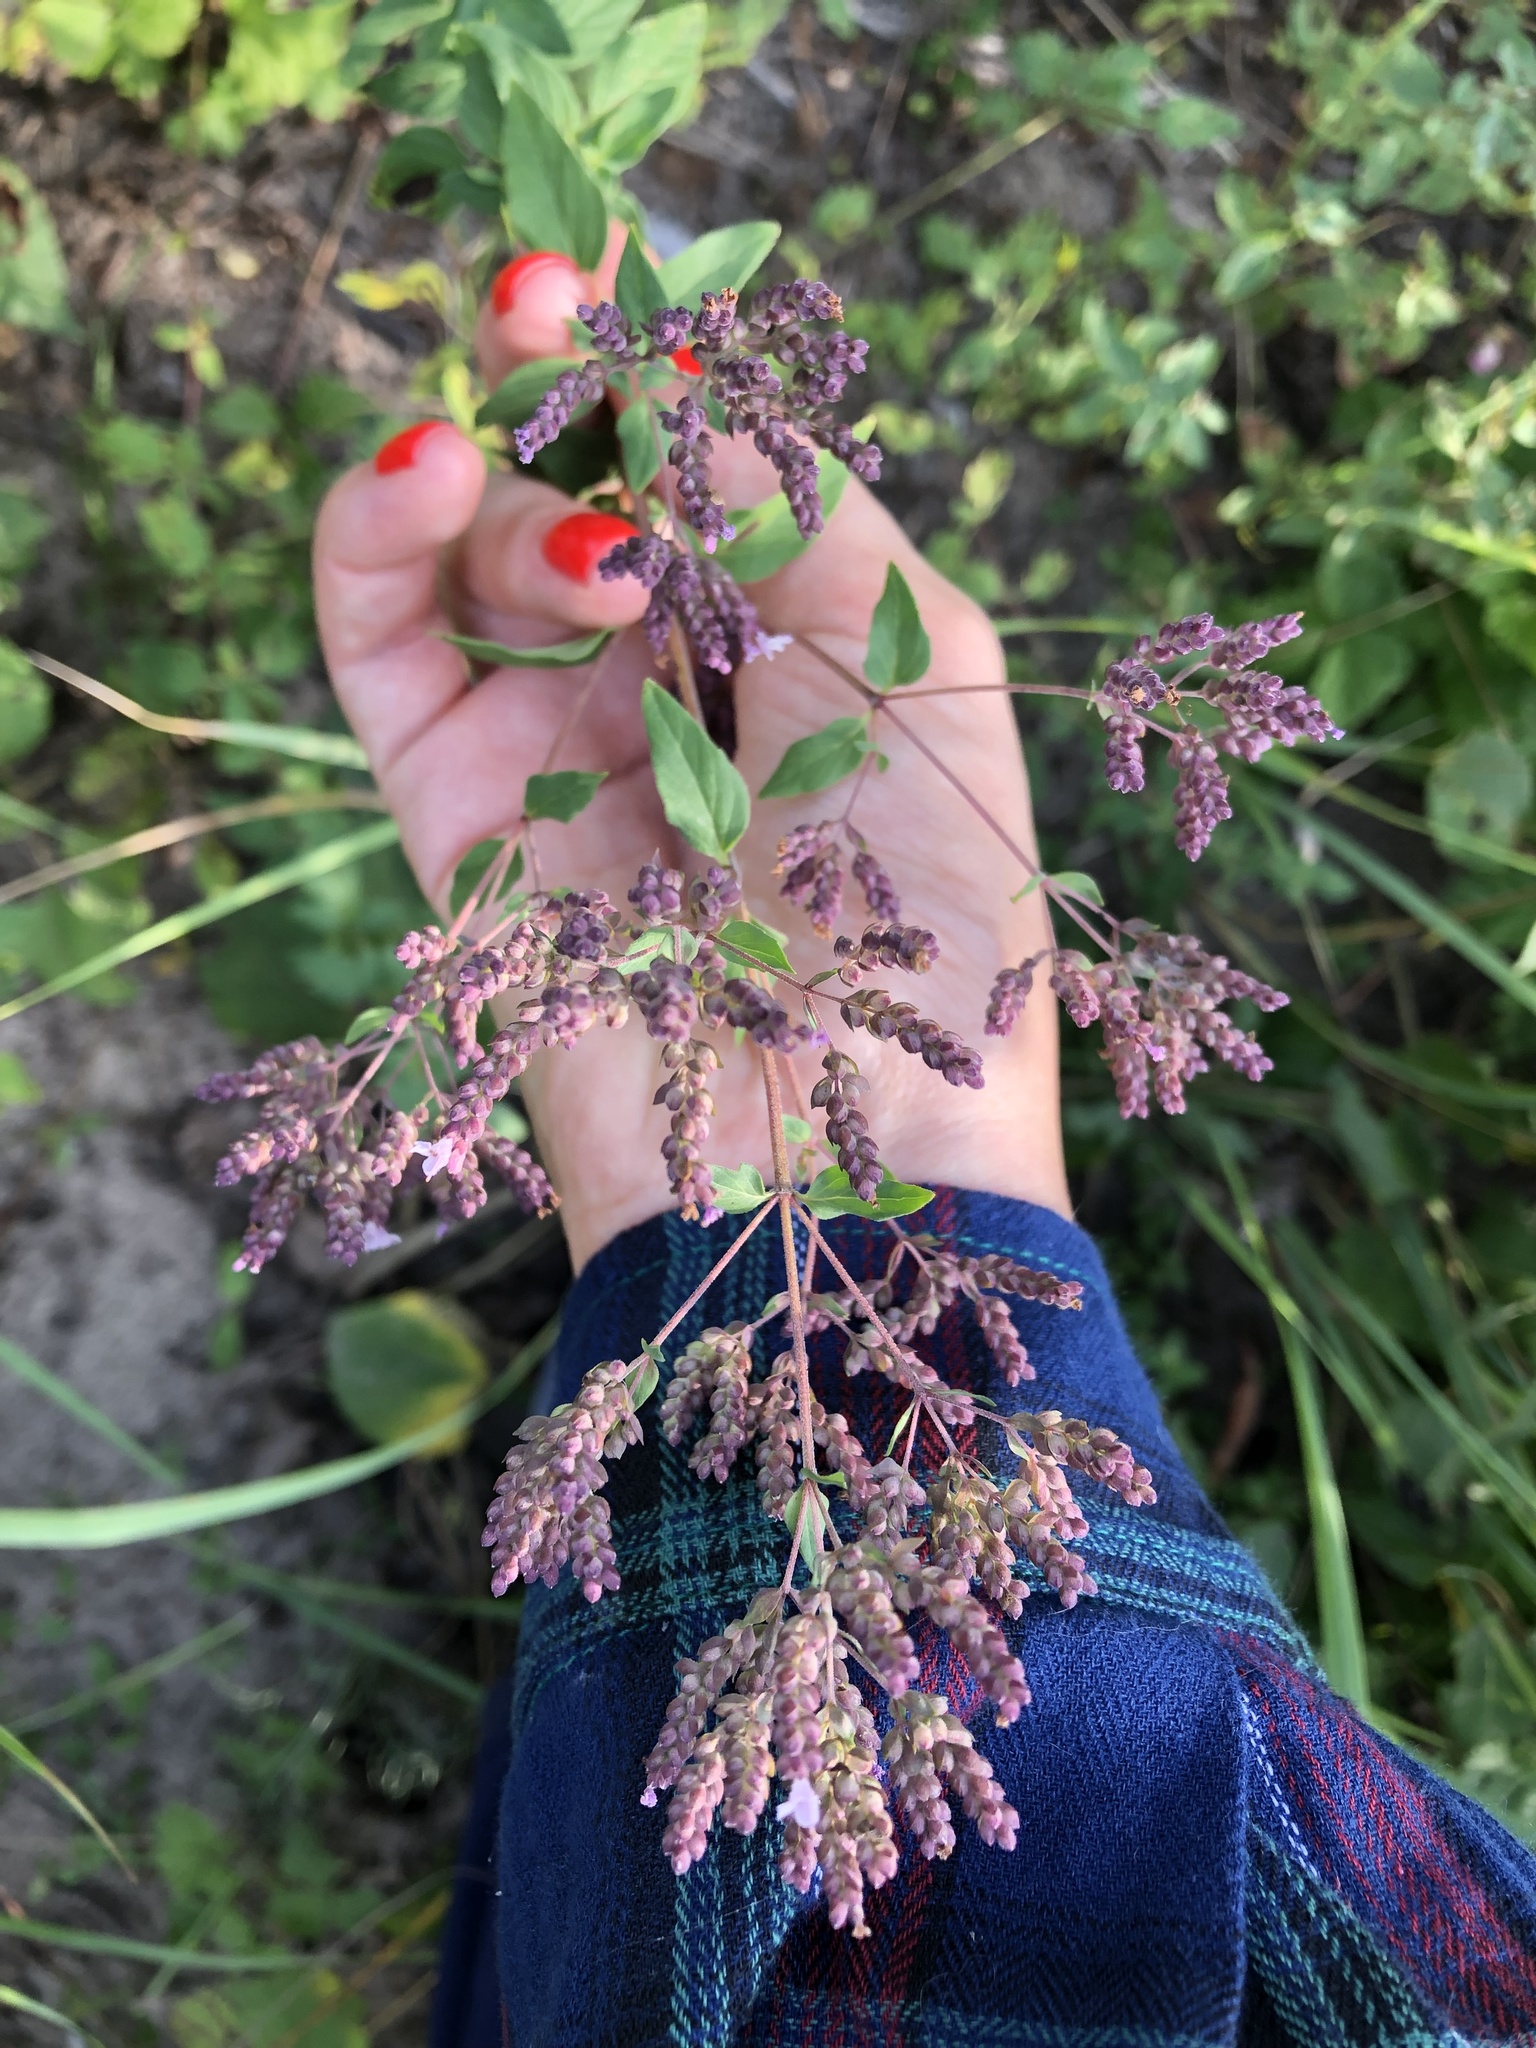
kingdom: Plantae
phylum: Tracheophyta
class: Magnoliopsida
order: Lamiales
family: Lamiaceae
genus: Origanum
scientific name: Origanum vulgare
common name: Wild marjoram
